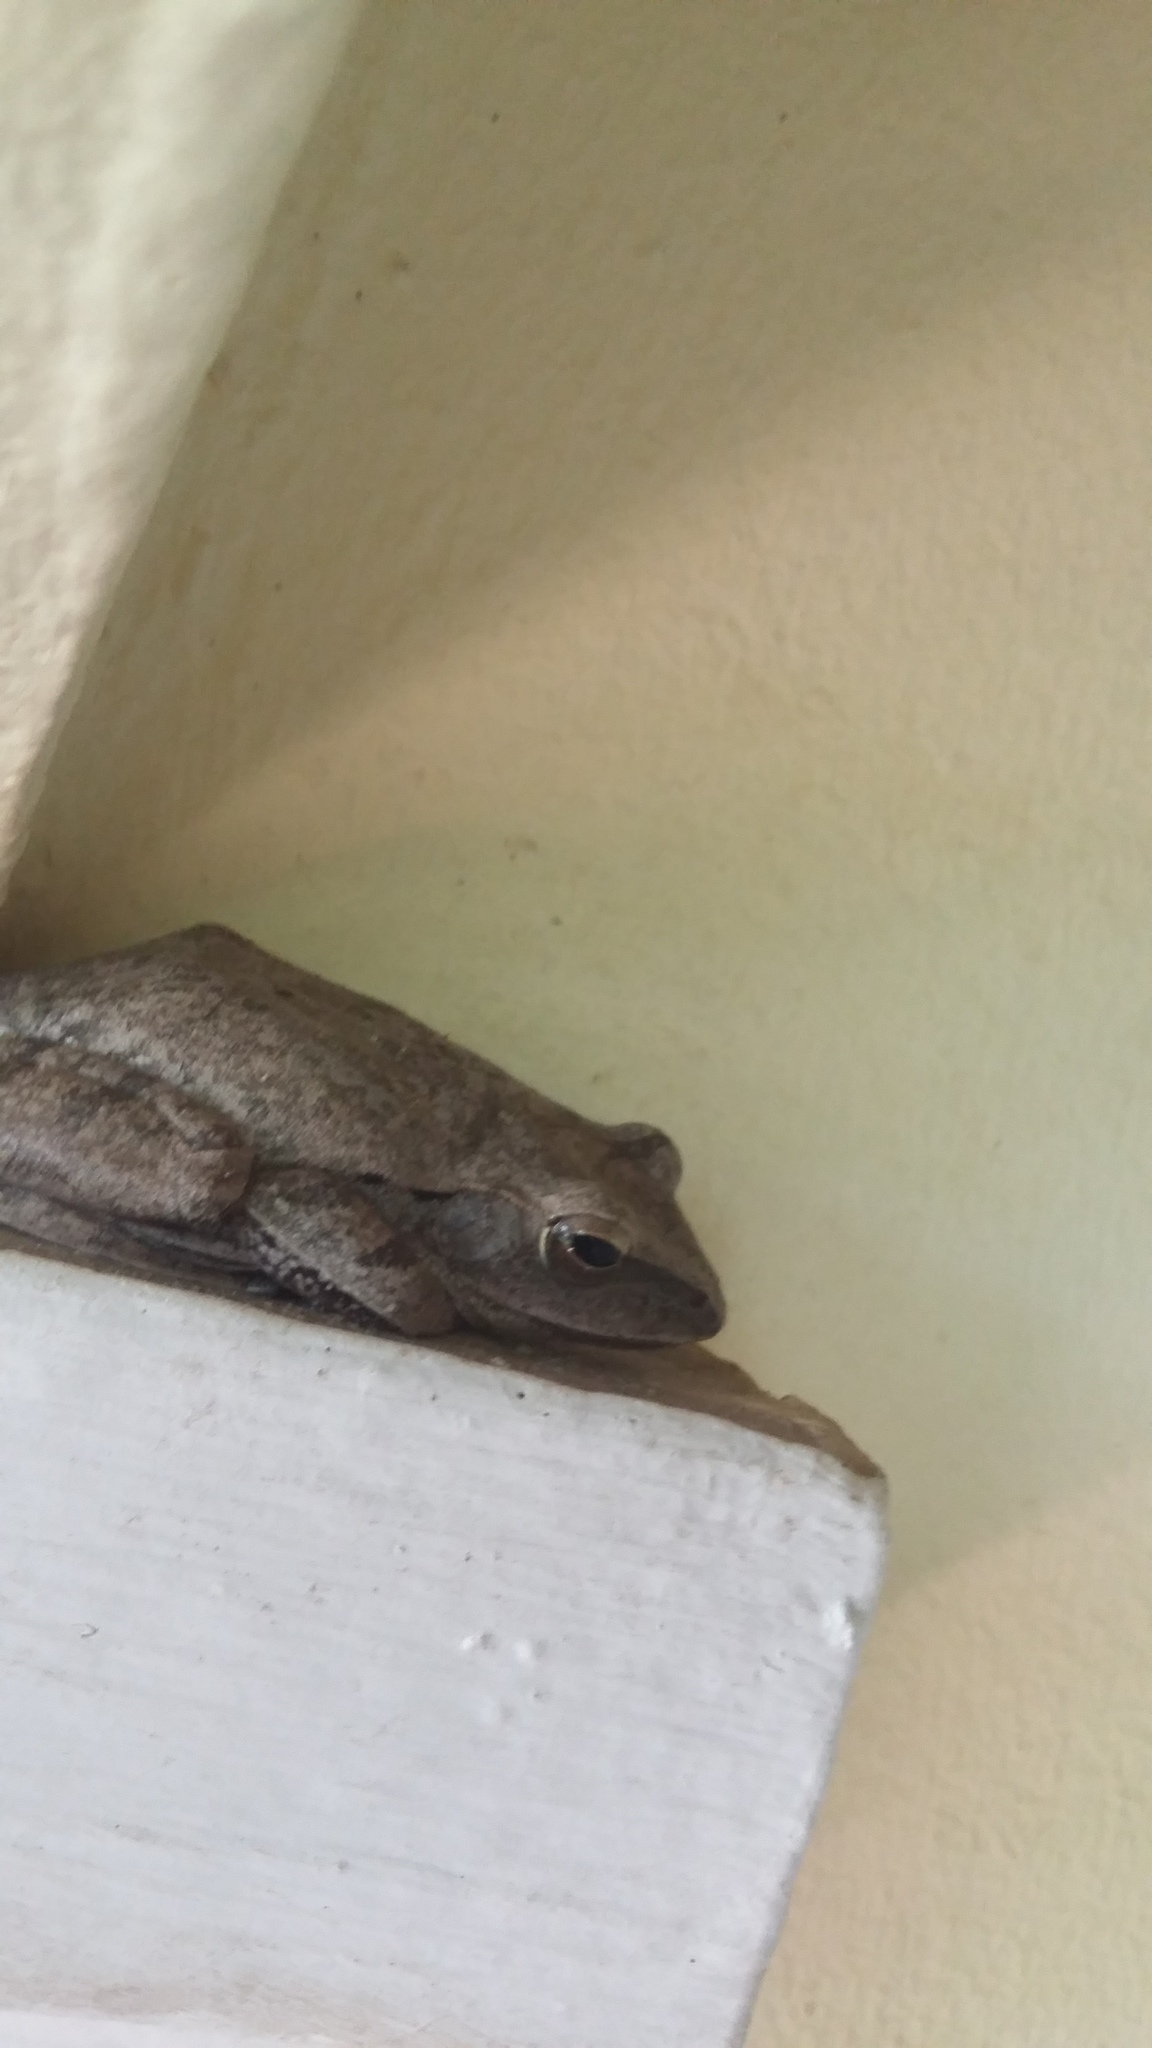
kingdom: Animalia
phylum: Chordata
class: Amphibia
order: Anura
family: Rhacophoridae
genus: Polypedates
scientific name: Polypedates megacephalus
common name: Hong kong whipping frog
